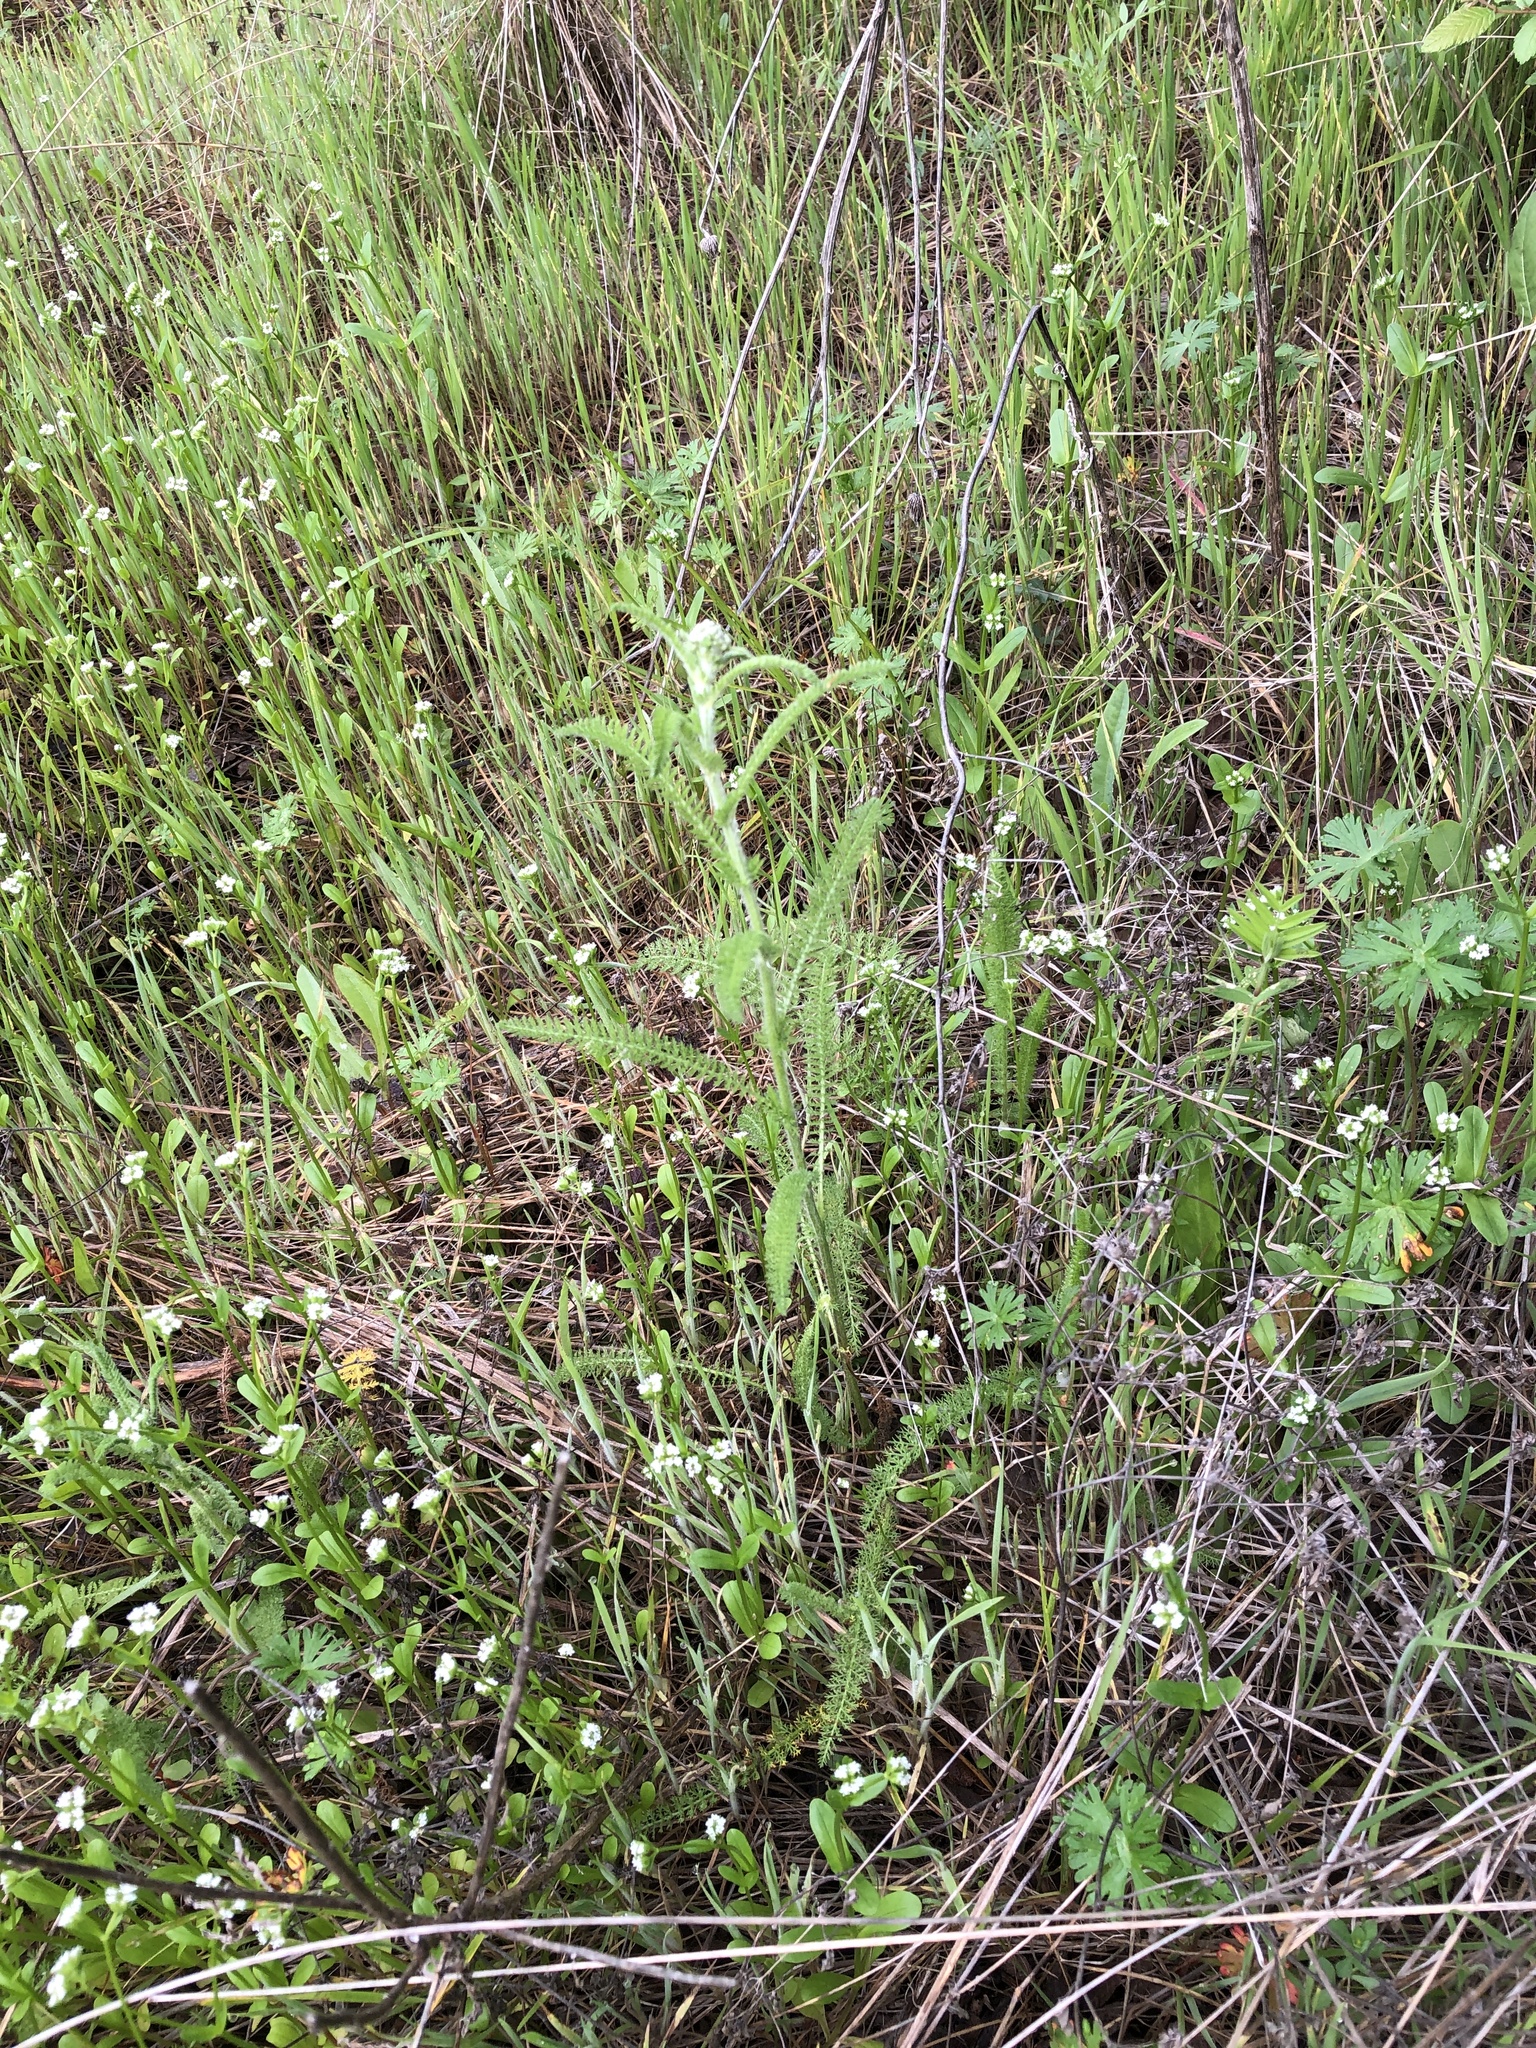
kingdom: Plantae
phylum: Tracheophyta
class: Magnoliopsida
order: Asterales
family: Asteraceae
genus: Achillea
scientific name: Achillea millefolium
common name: Yarrow
